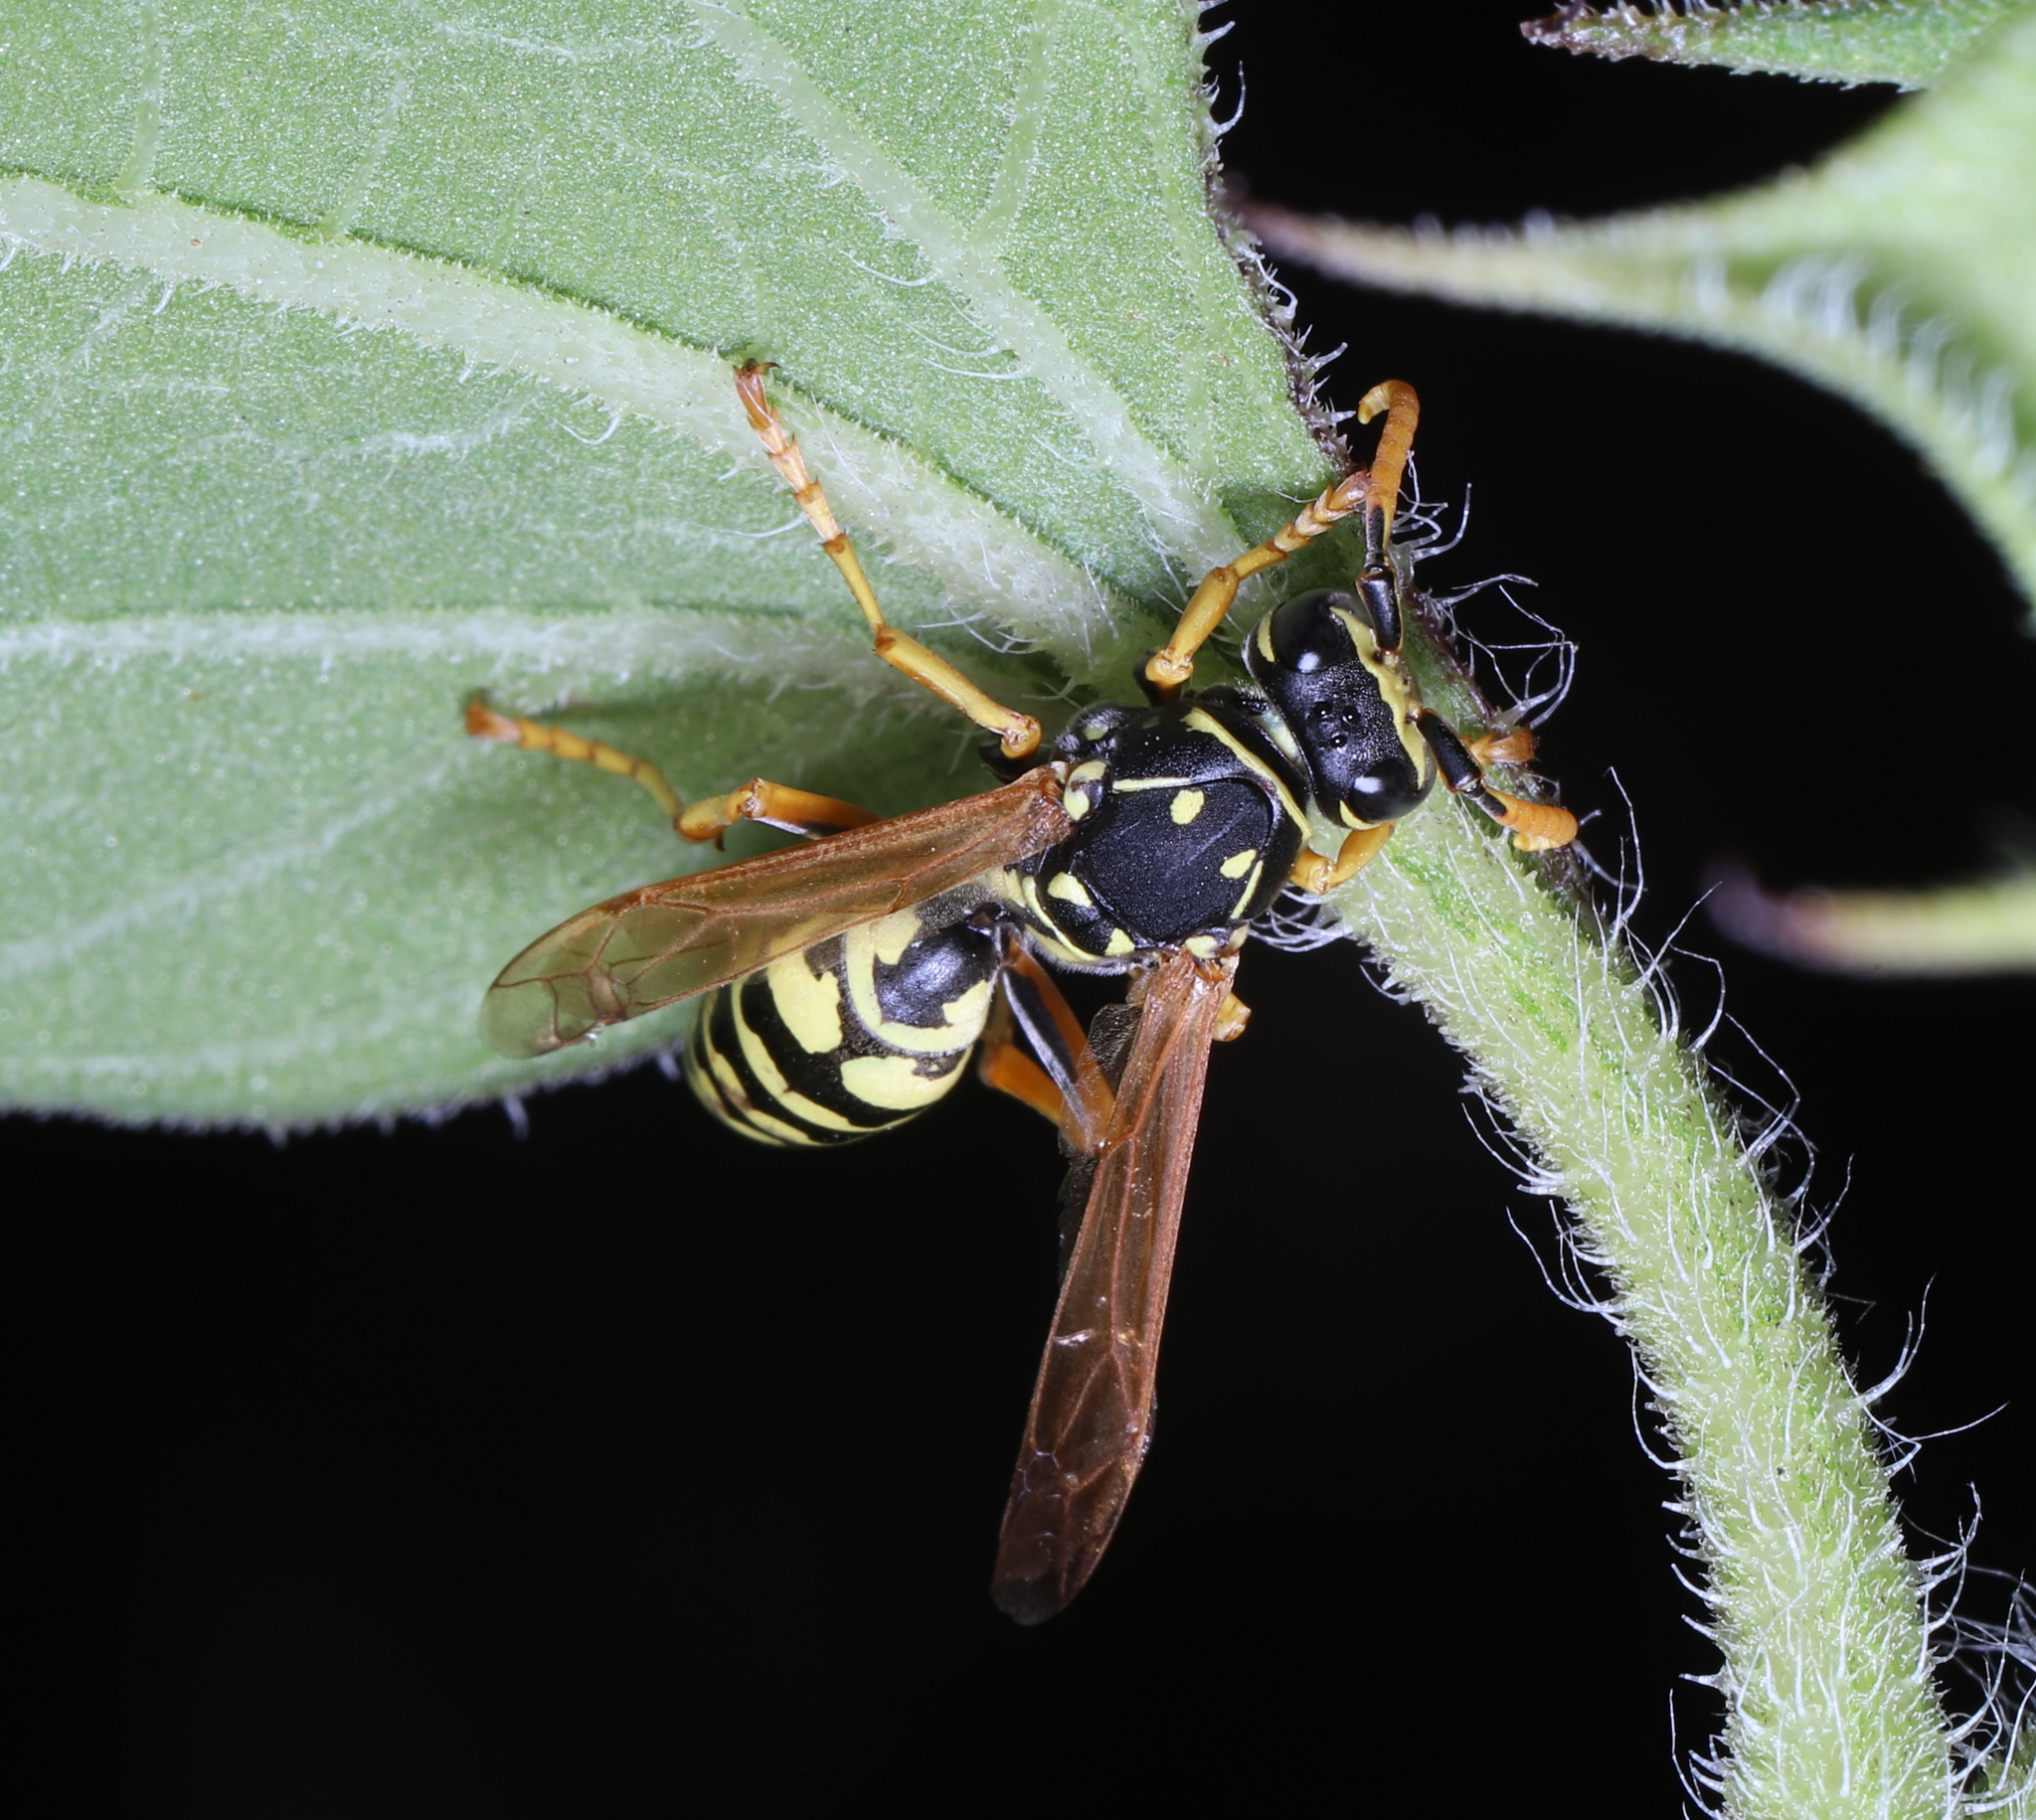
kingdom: Animalia
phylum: Arthropoda
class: Insecta
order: Hymenoptera
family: Eumenidae
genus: Polistes
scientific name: Polistes dominula
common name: Paper wasp
